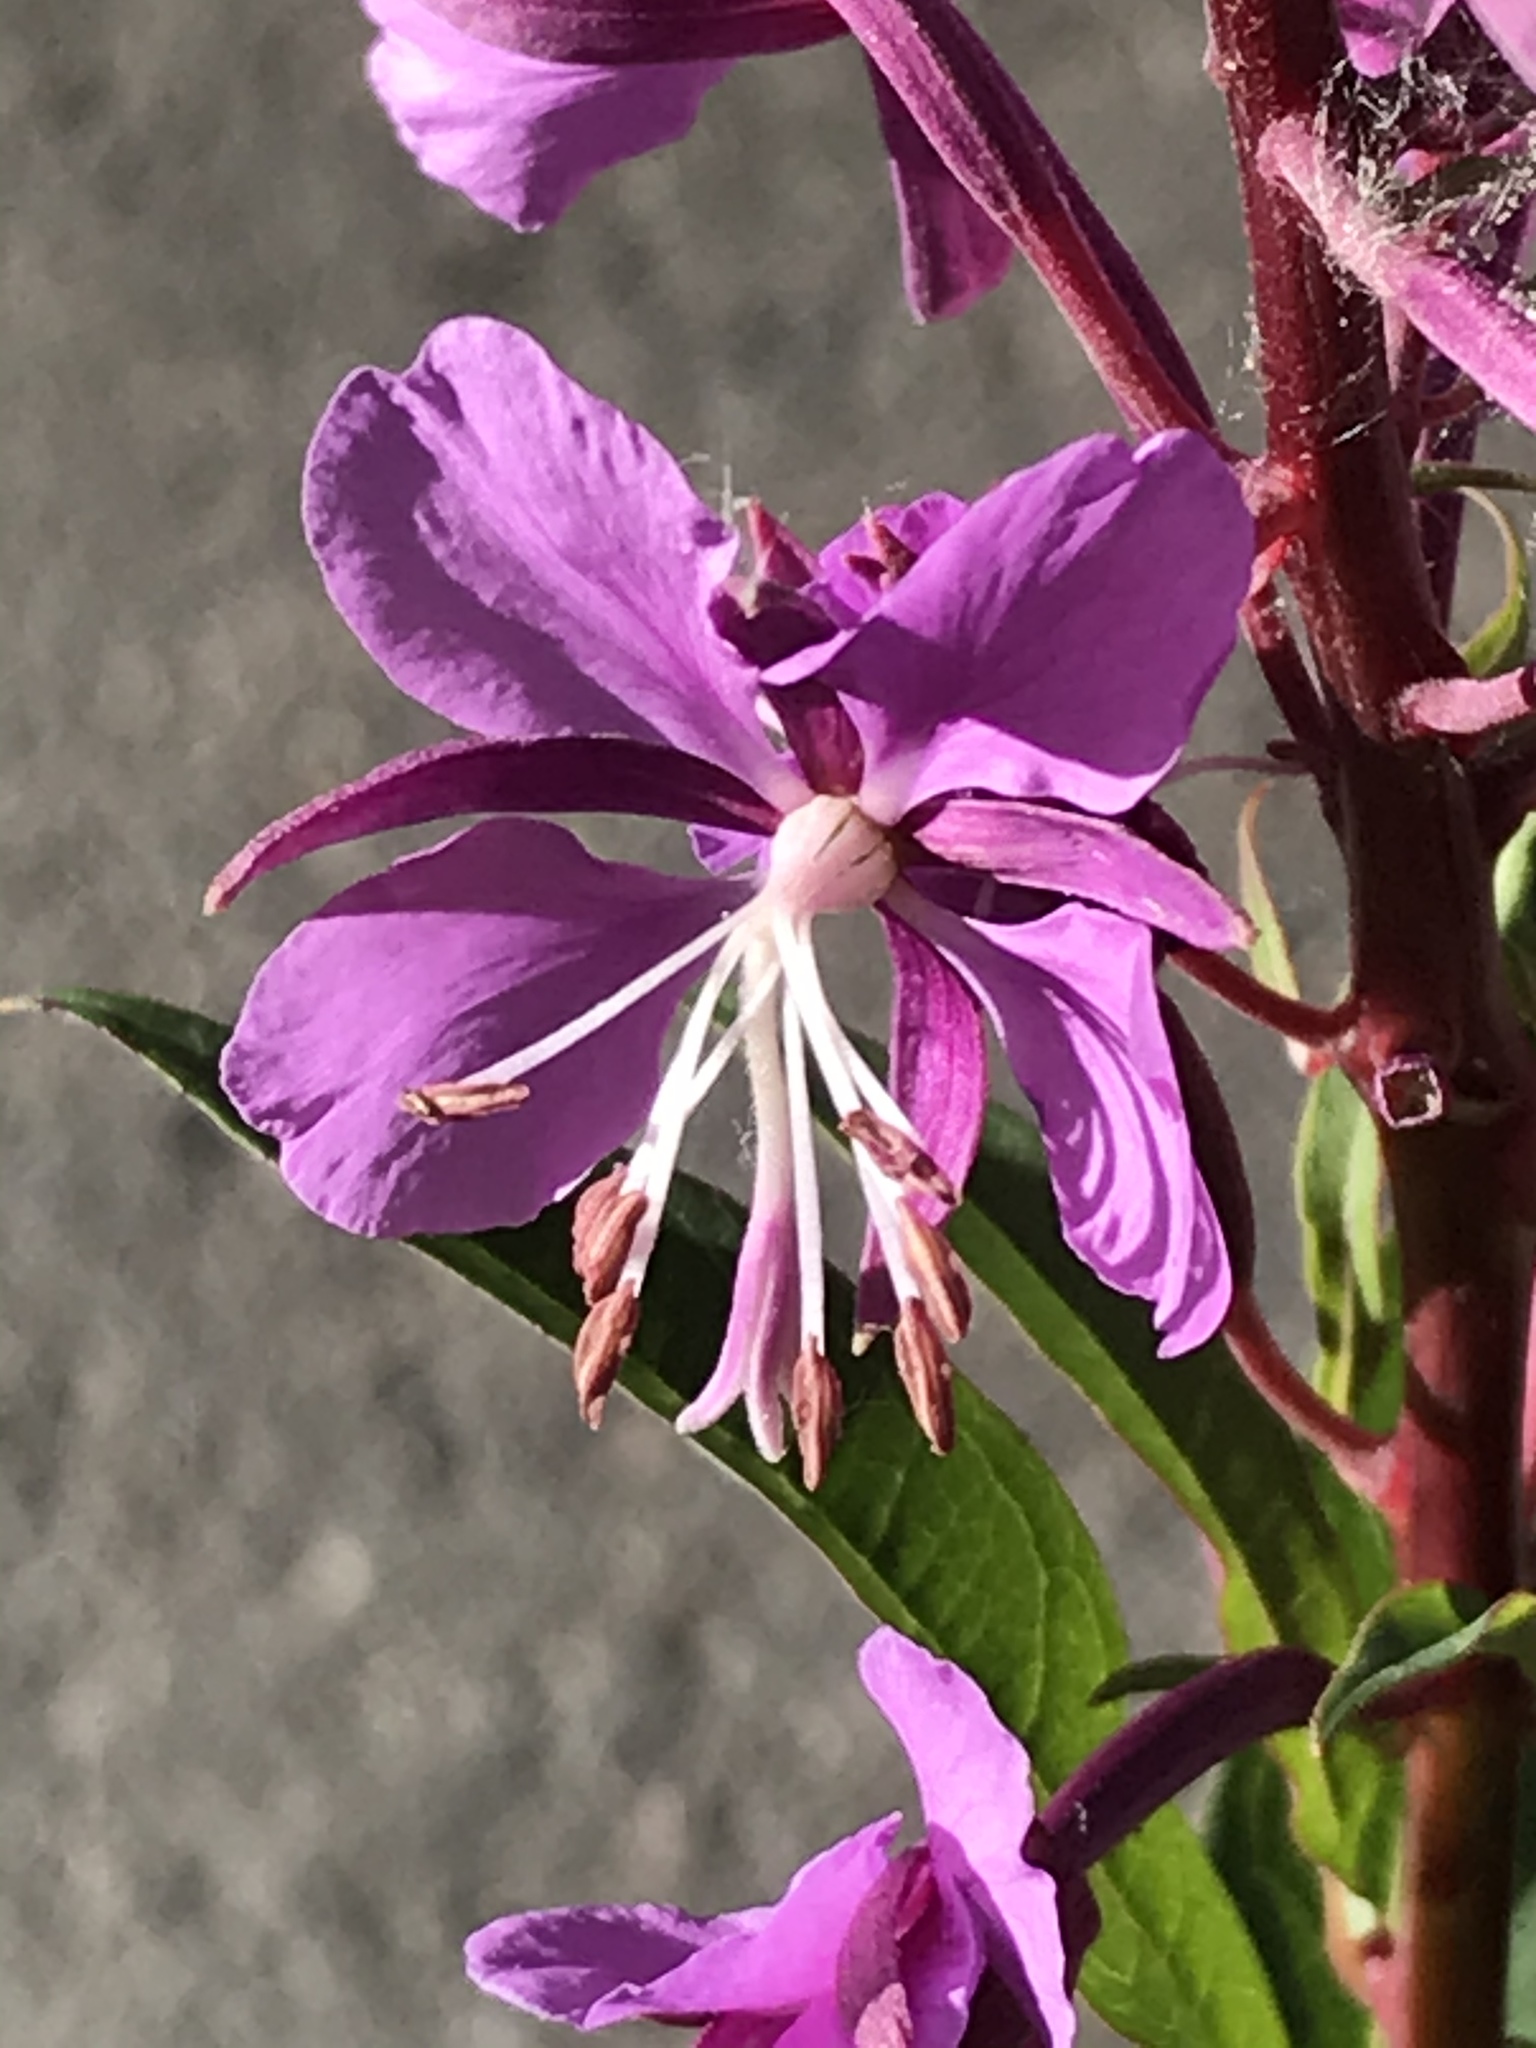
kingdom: Plantae
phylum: Tracheophyta
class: Magnoliopsida
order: Myrtales
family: Onagraceae
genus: Chamaenerion
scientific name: Chamaenerion angustifolium
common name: Fireweed
